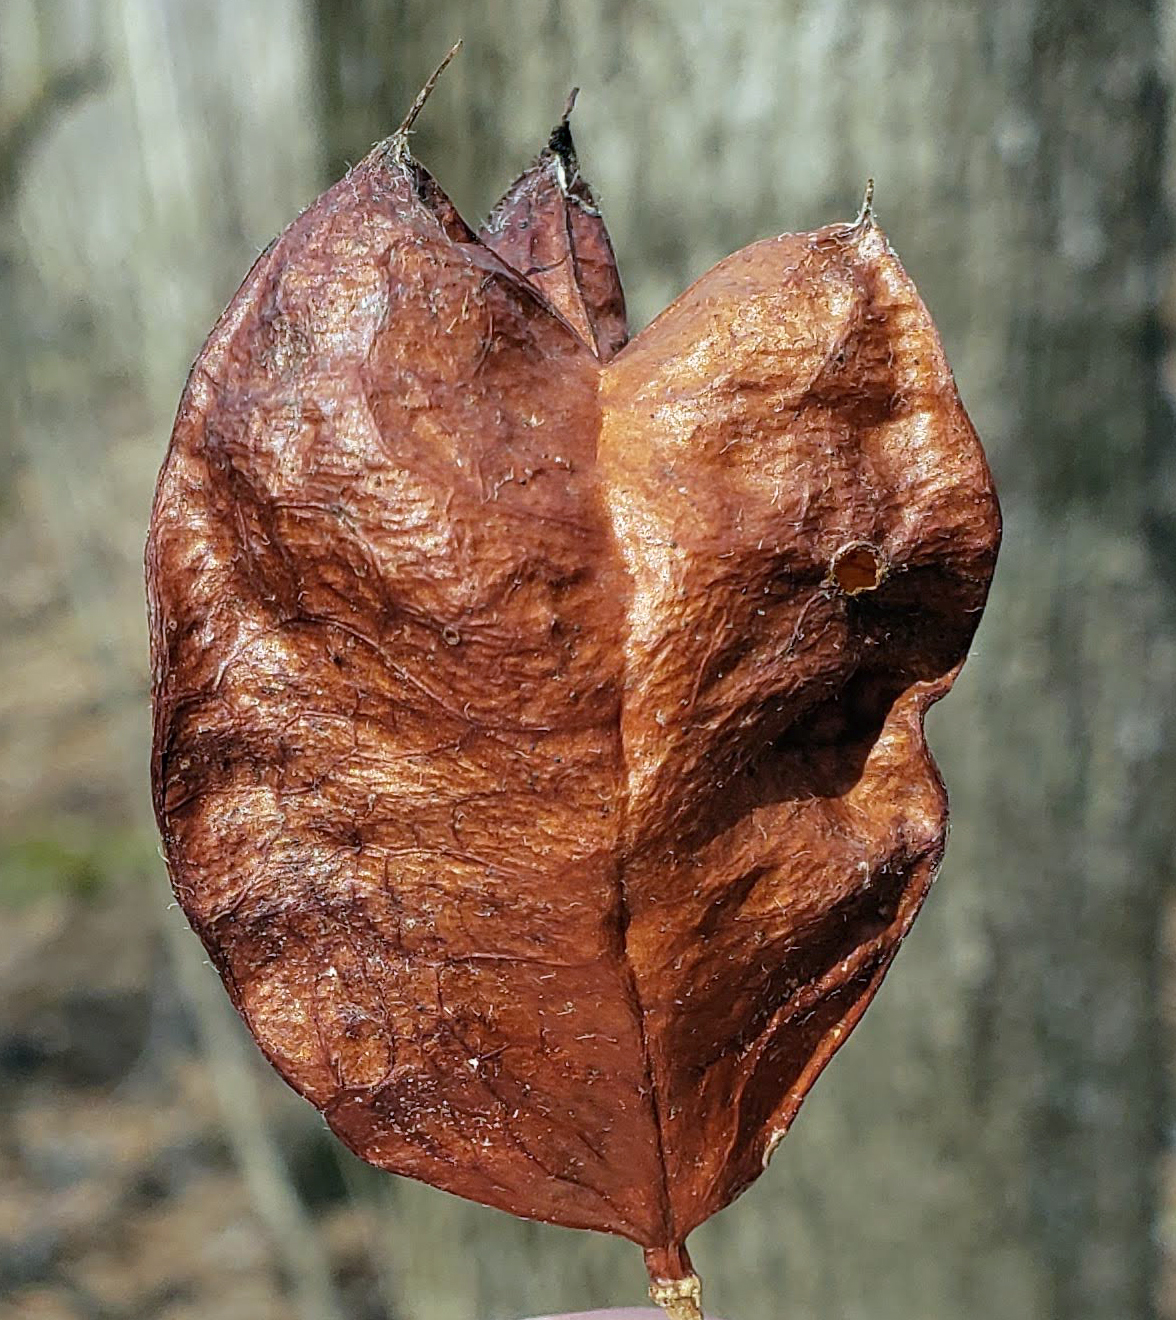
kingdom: Plantae
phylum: Tracheophyta
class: Magnoliopsida
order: Crossosomatales
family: Staphyleaceae
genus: Staphylea
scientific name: Staphylea trifolia
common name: American bladdernut
